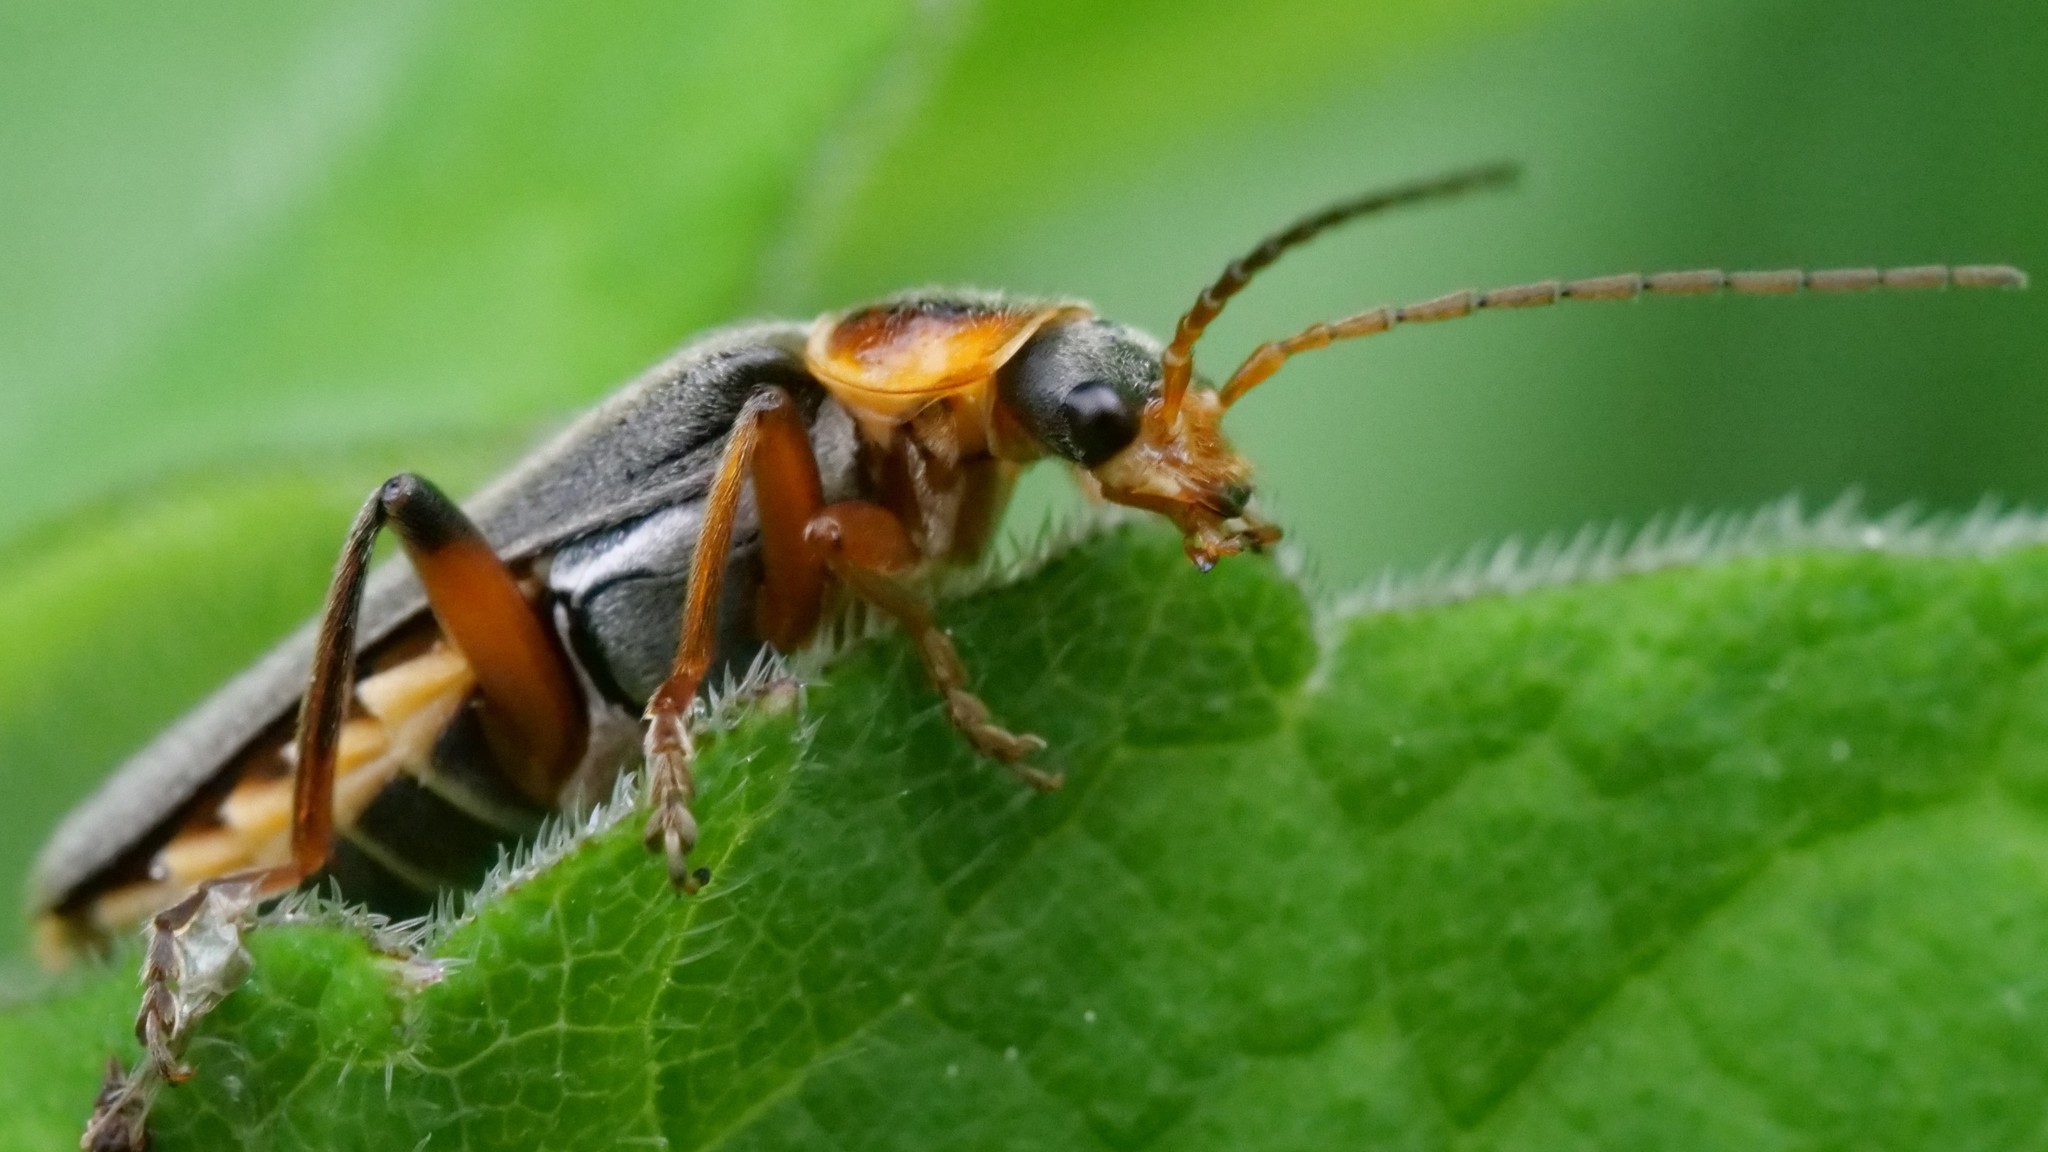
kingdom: Animalia
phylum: Arthropoda
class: Insecta
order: Coleoptera
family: Cantharidae
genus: Cantharis
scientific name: Cantharis nigricans
